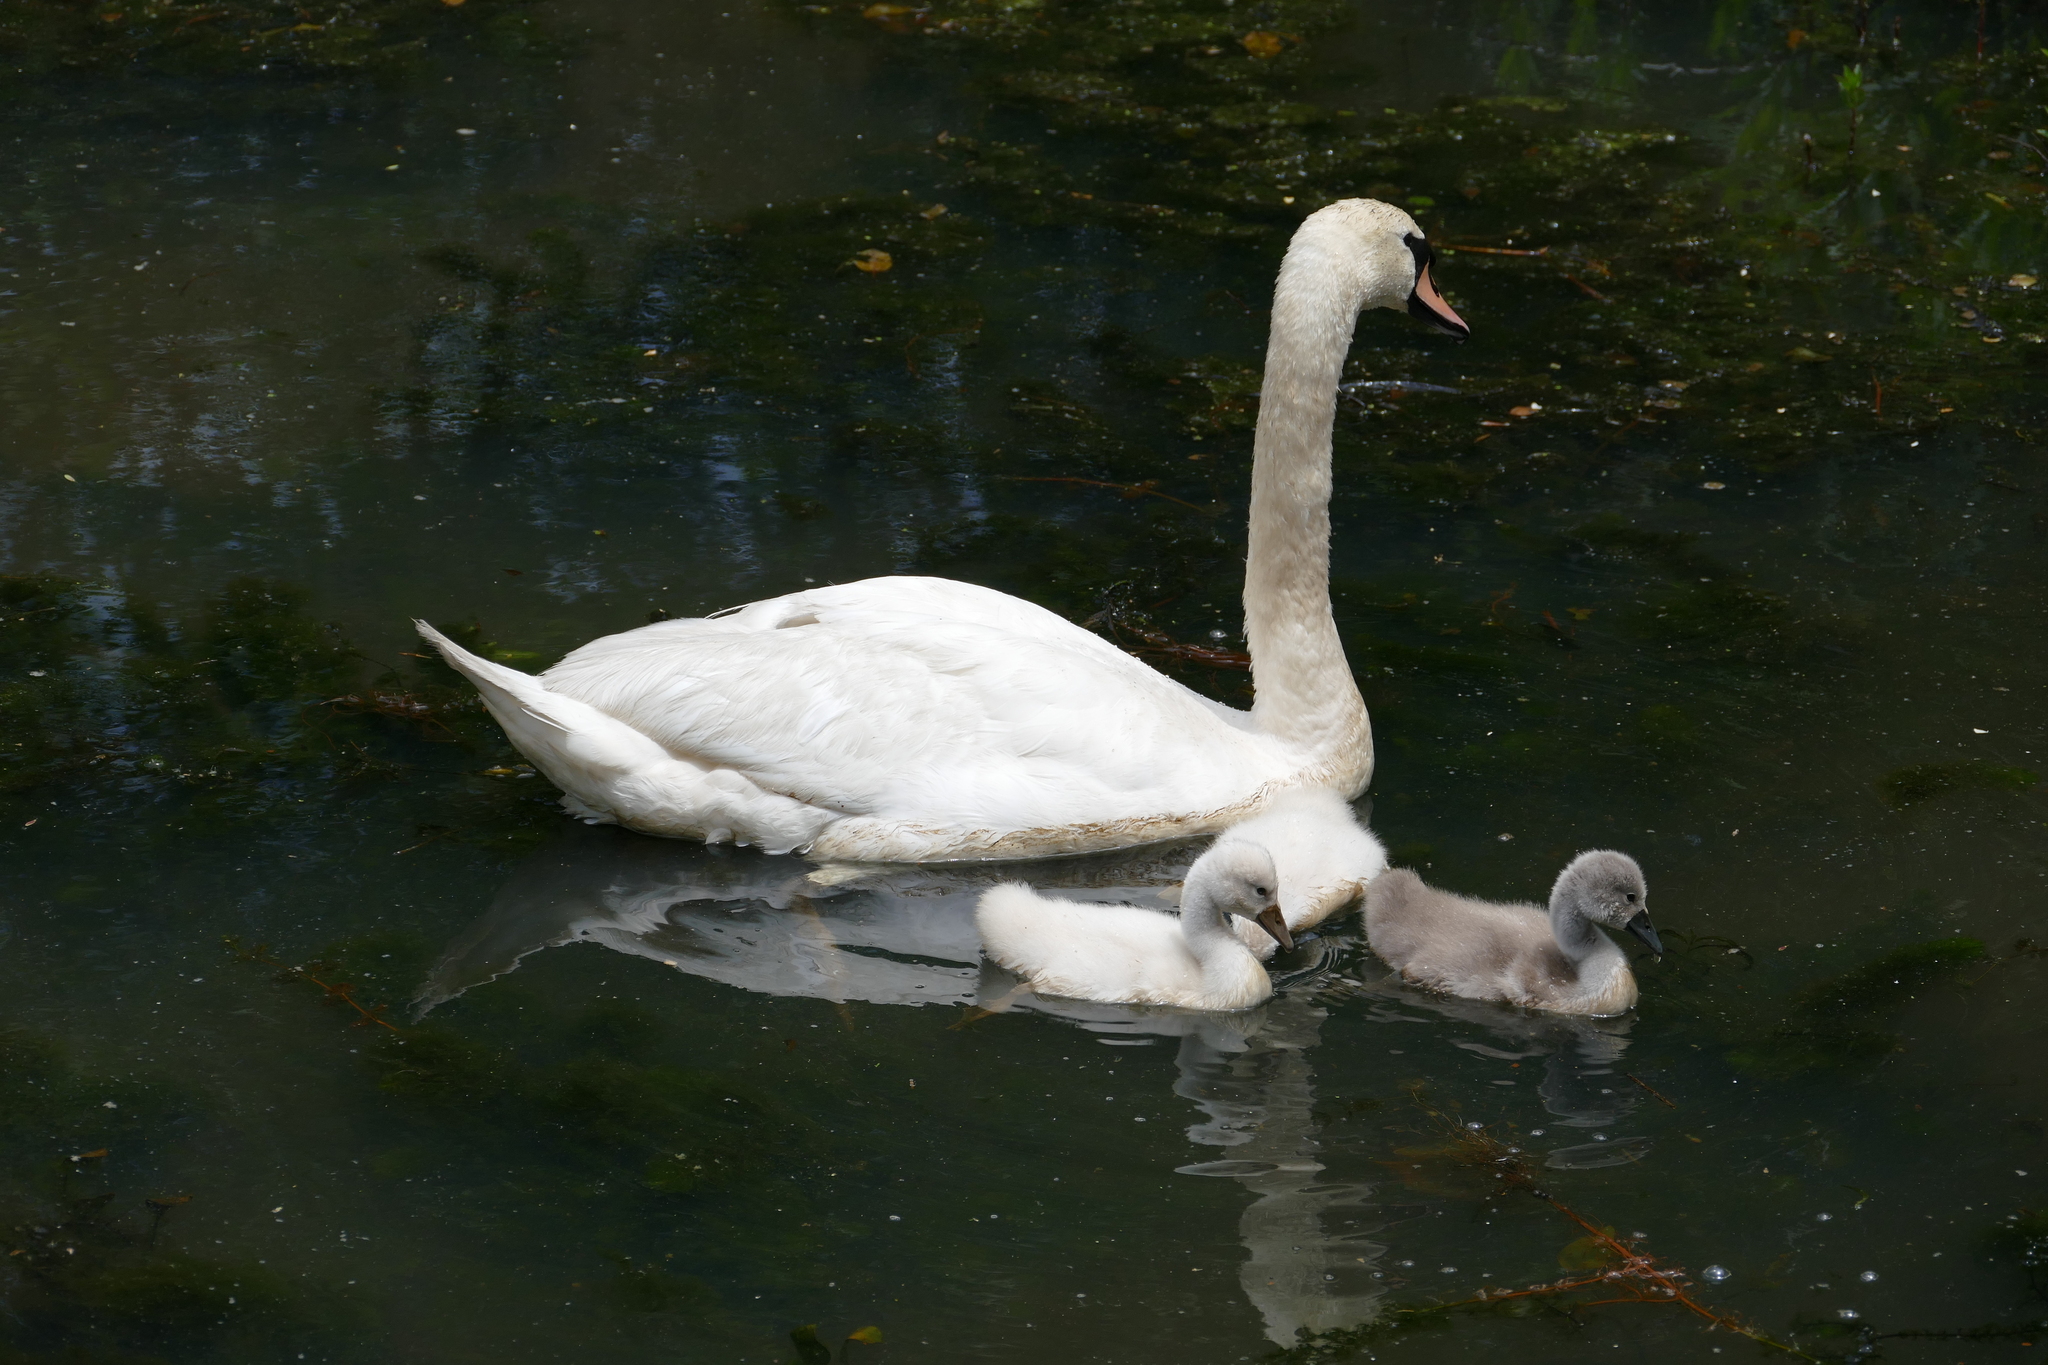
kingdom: Animalia
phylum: Chordata
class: Aves
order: Anseriformes
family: Anatidae
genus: Cygnus
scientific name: Cygnus olor
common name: Mute swan
